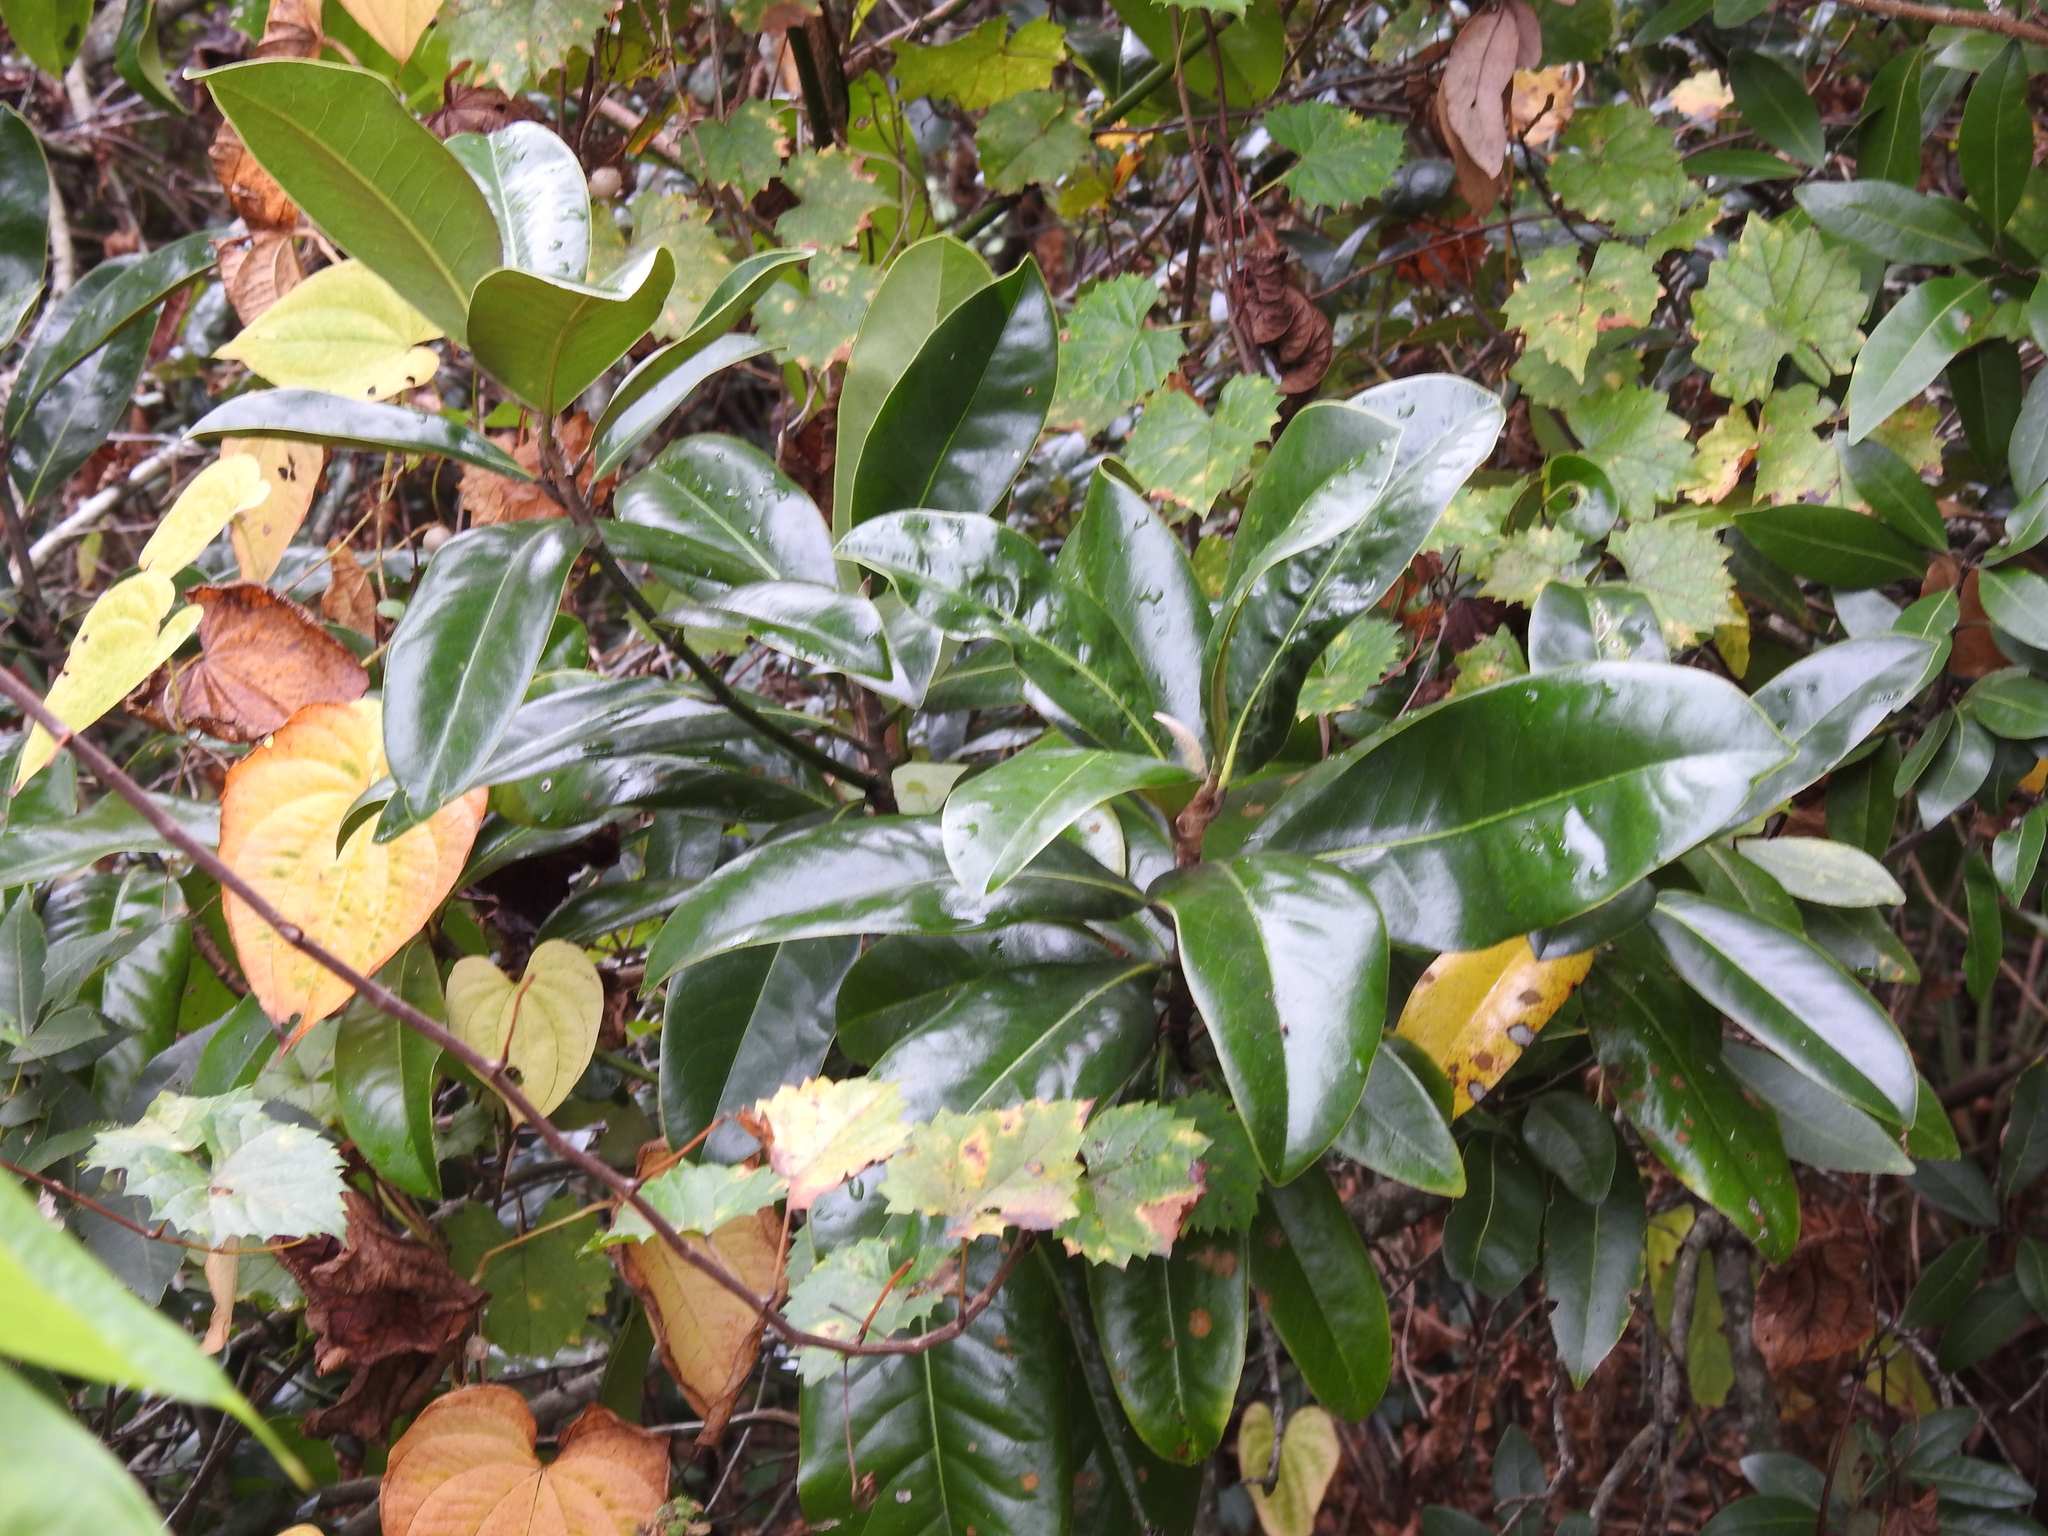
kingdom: Plantae
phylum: Tracheophyta
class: Magnoliopsida
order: Magnoliales
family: Magnoliaceae
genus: Magnolia
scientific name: Magnolia grandiflora
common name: Southern magnolia
